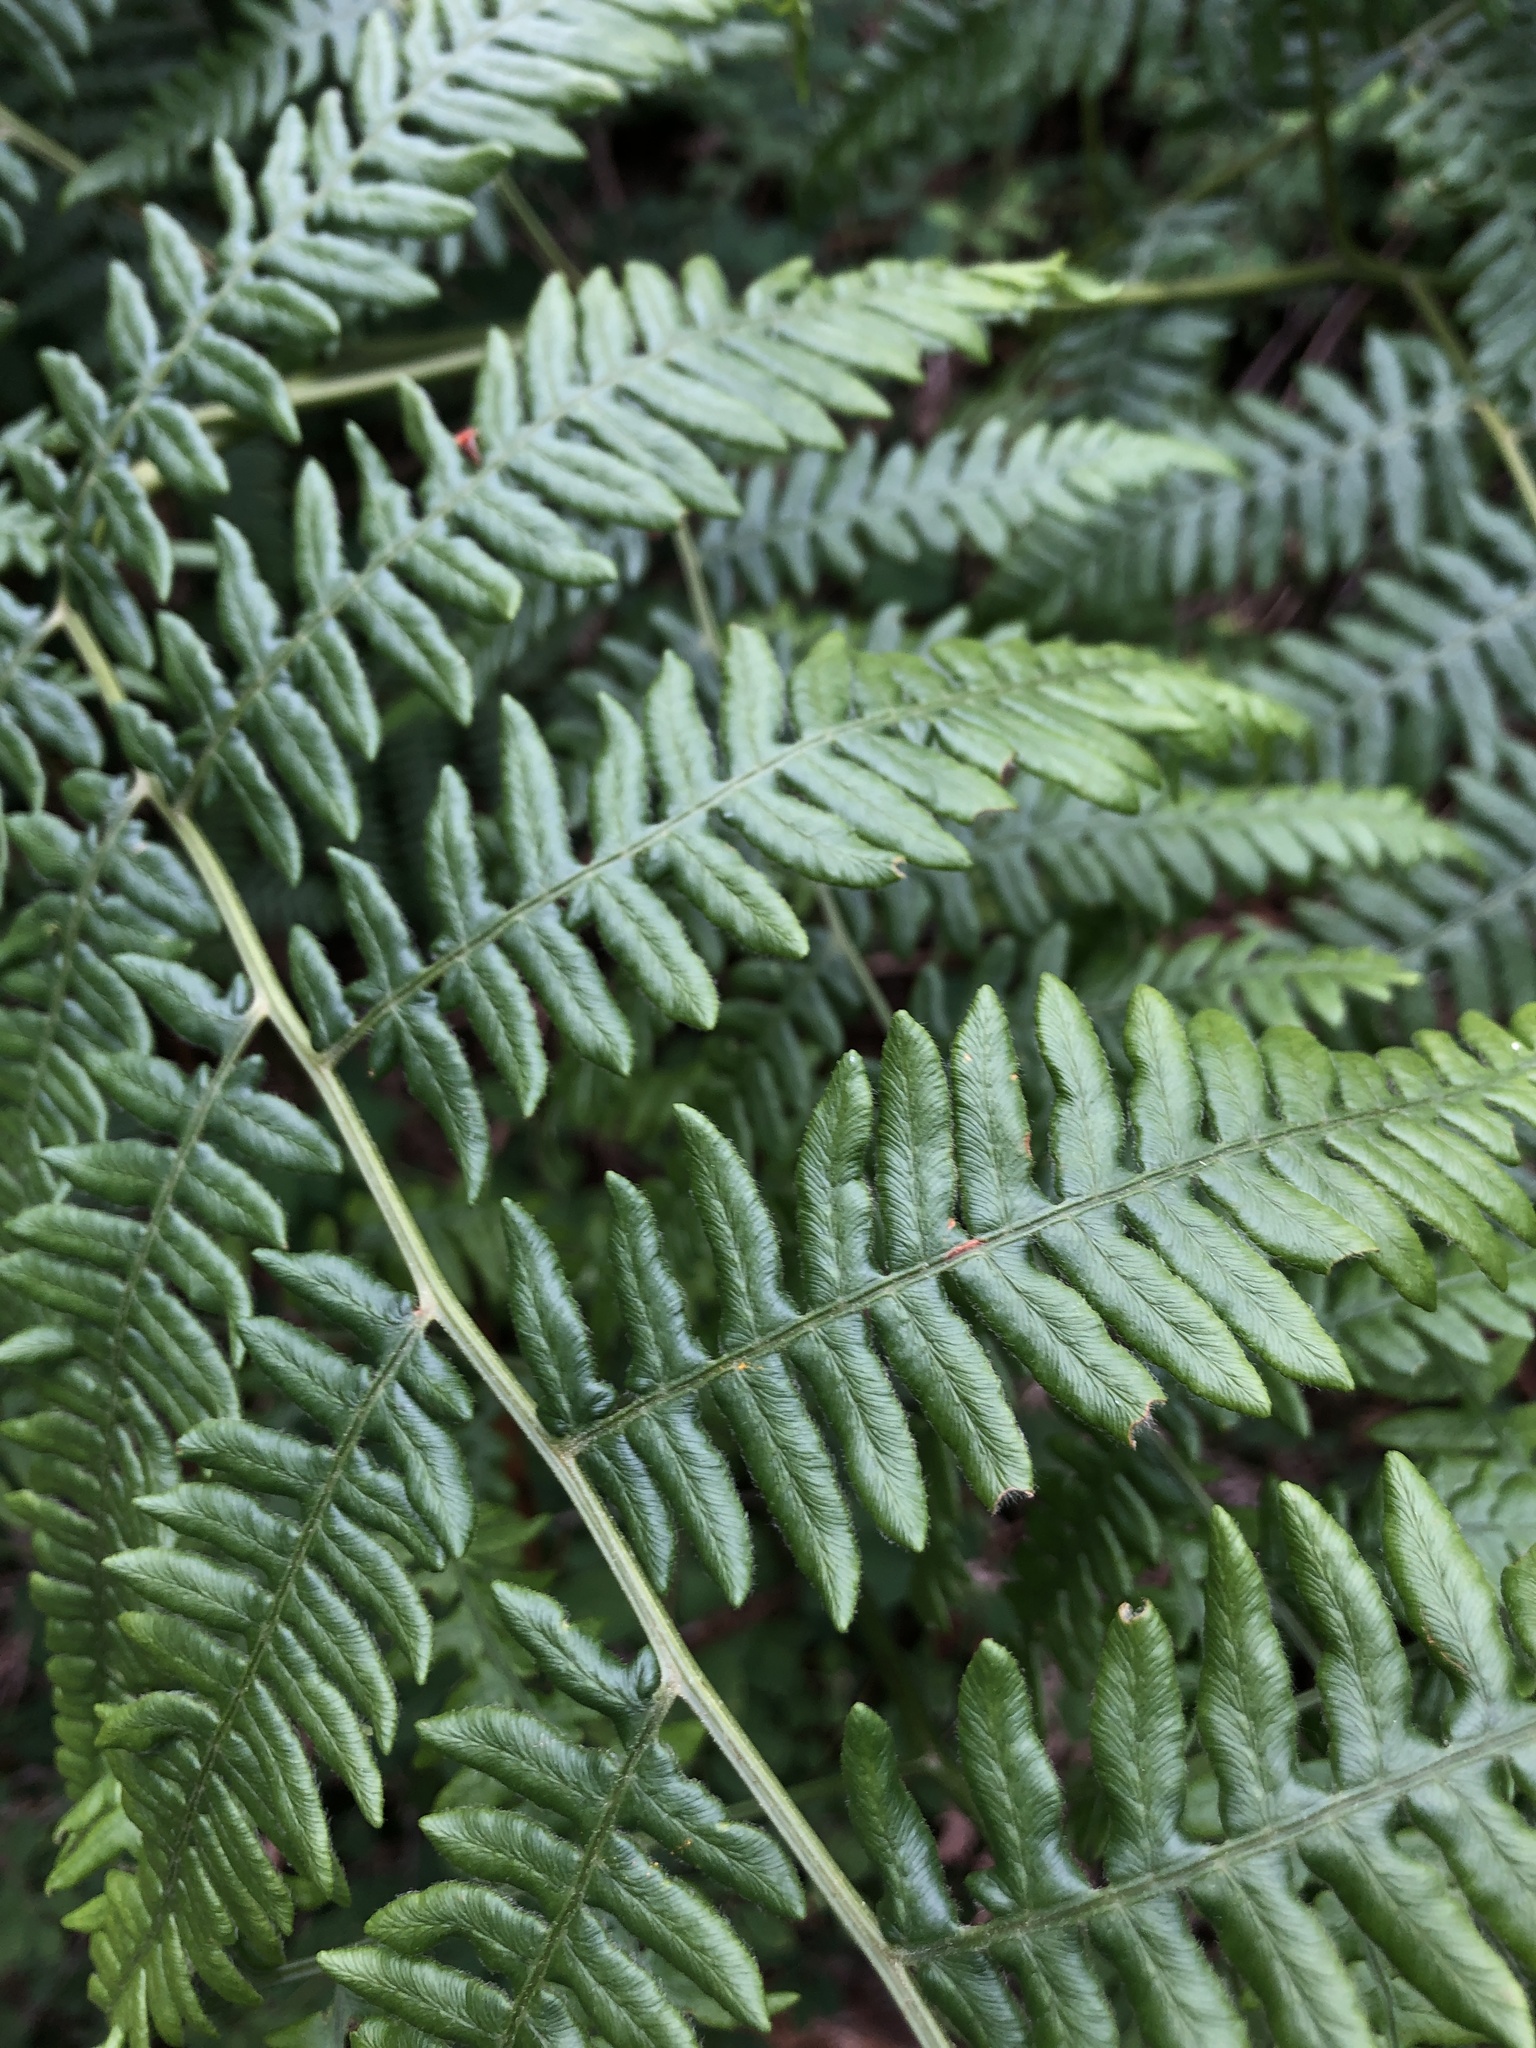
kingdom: Plantae
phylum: Tracheophyta
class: Polypodiopsida
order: Polypodiales
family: Dennstaedtiaceae
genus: Pteridium
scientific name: Pteridium aquilinum
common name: Bracken
